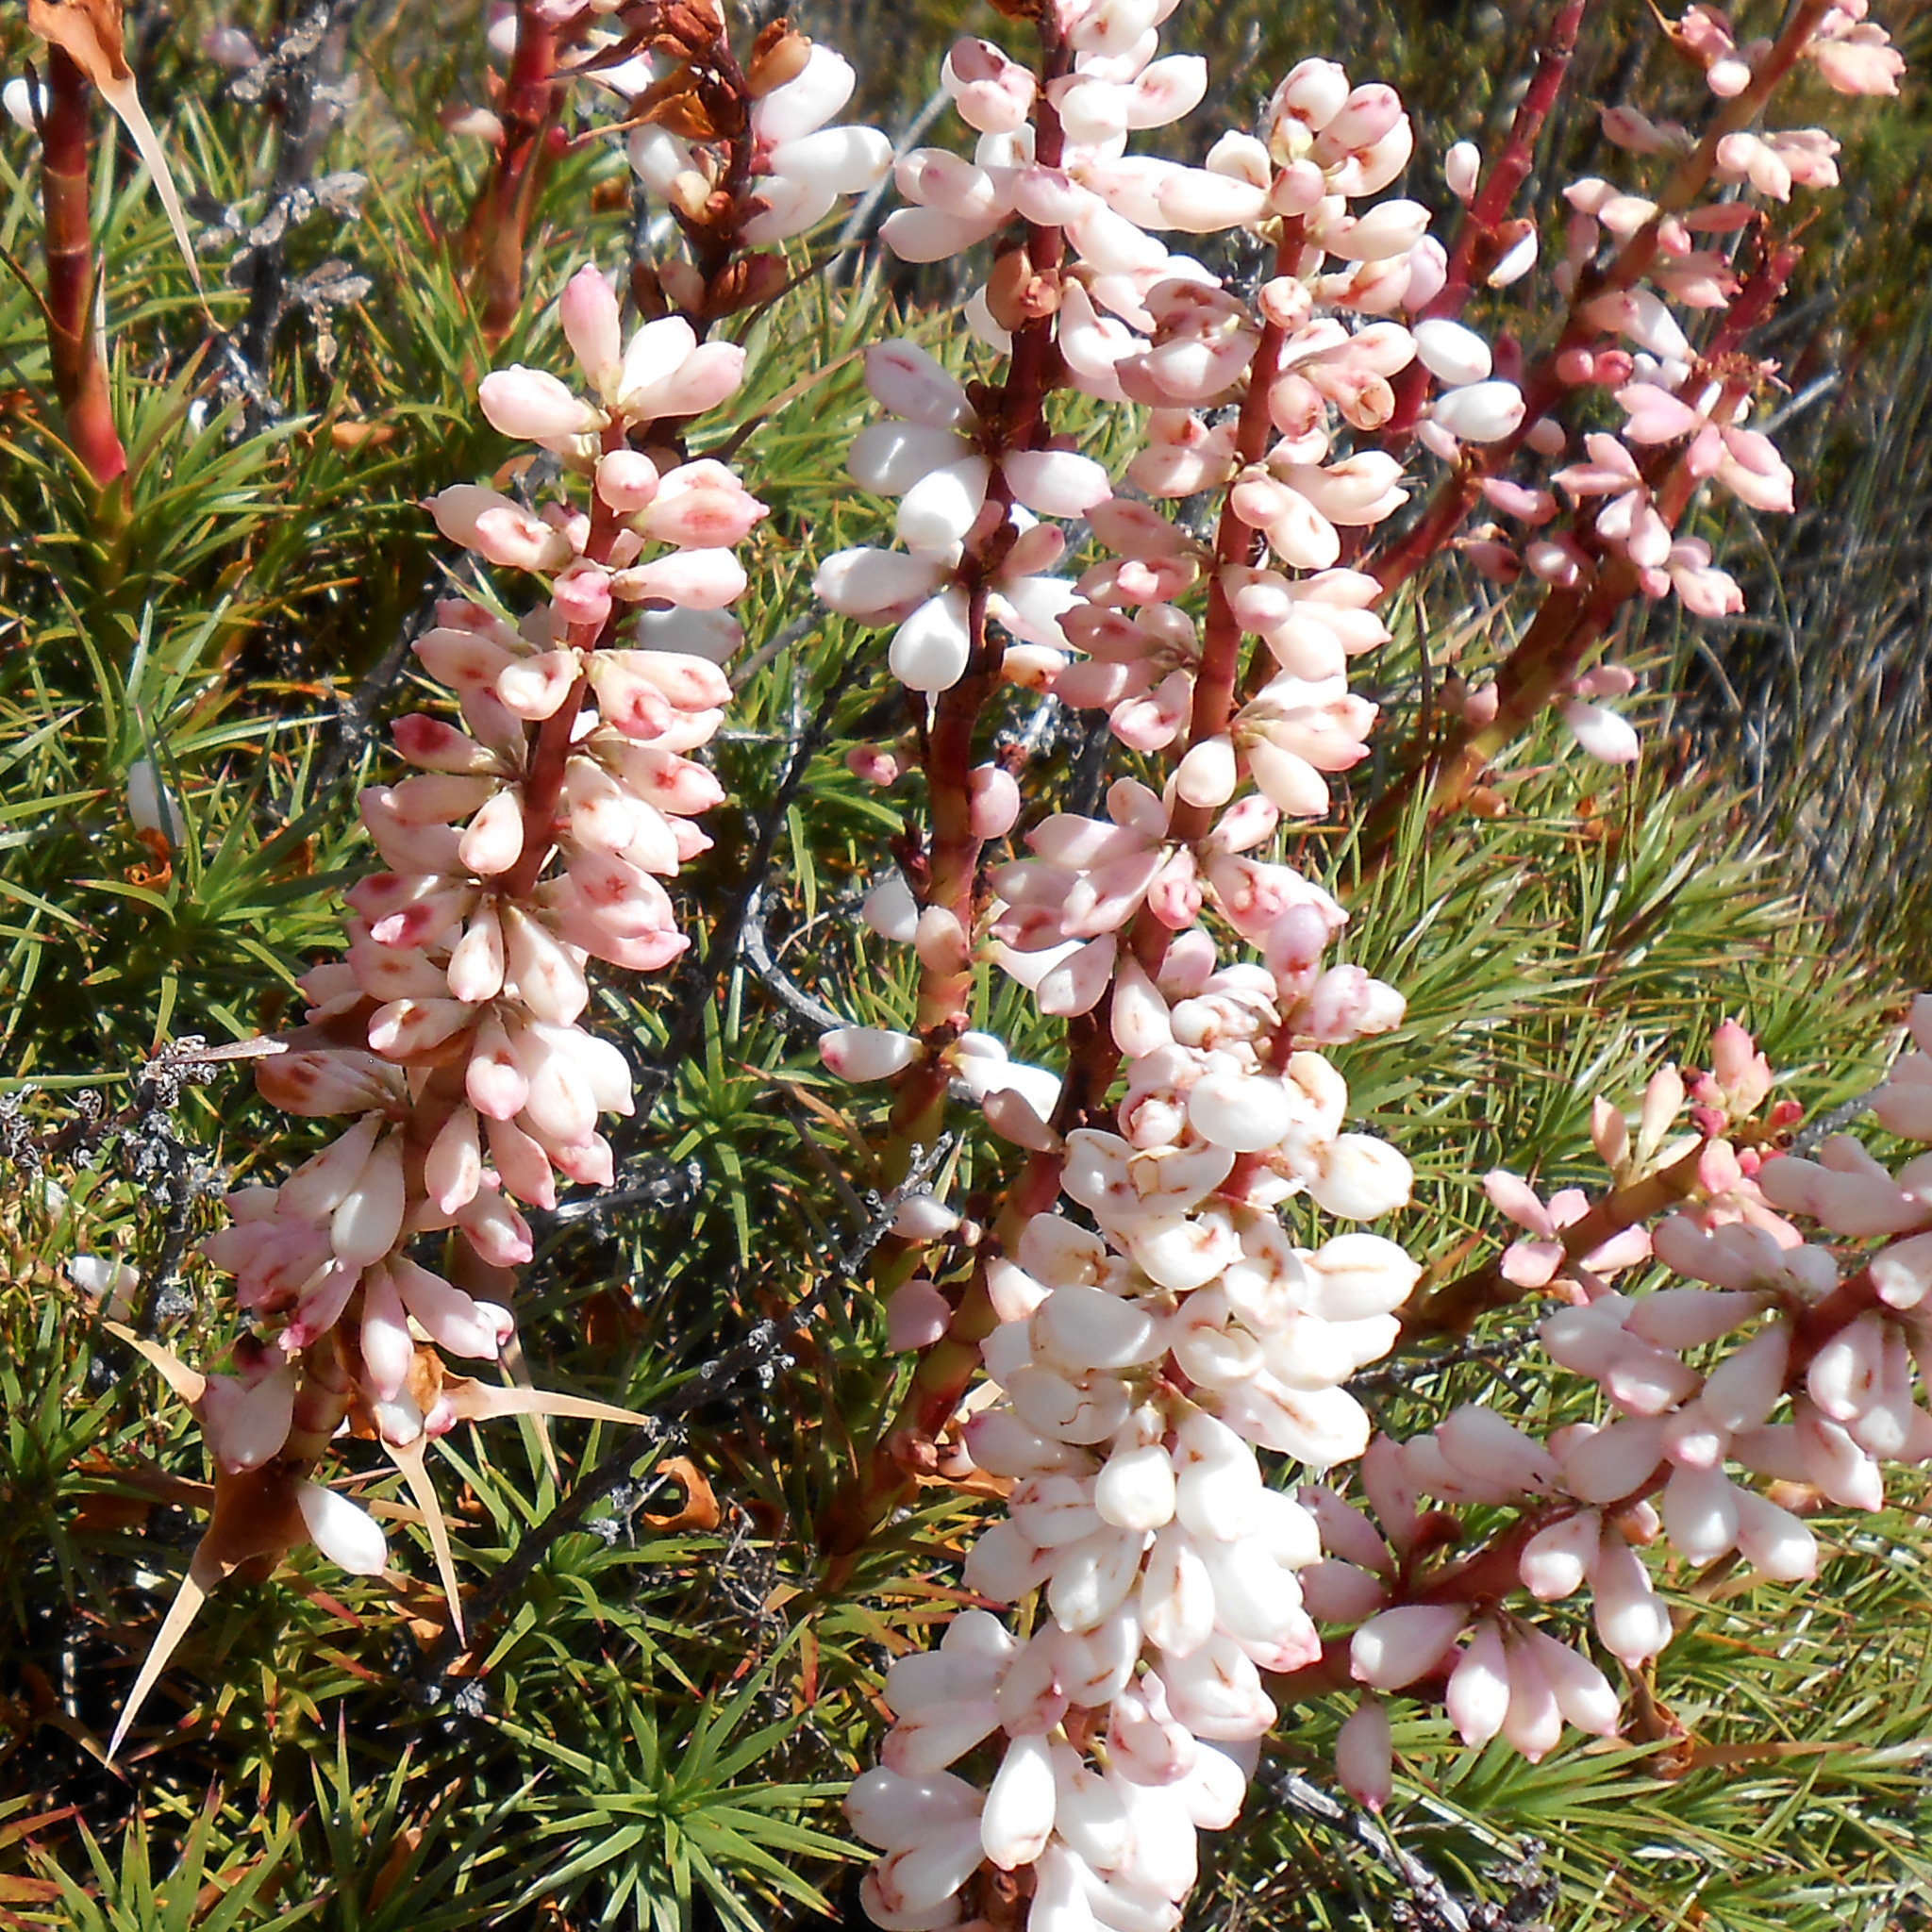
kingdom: Plantae
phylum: Tracheophyta
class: Magnoliopsida
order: Ericales
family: Ericaceae
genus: Dracophyllum
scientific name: Dracophyllum persistentifolium
